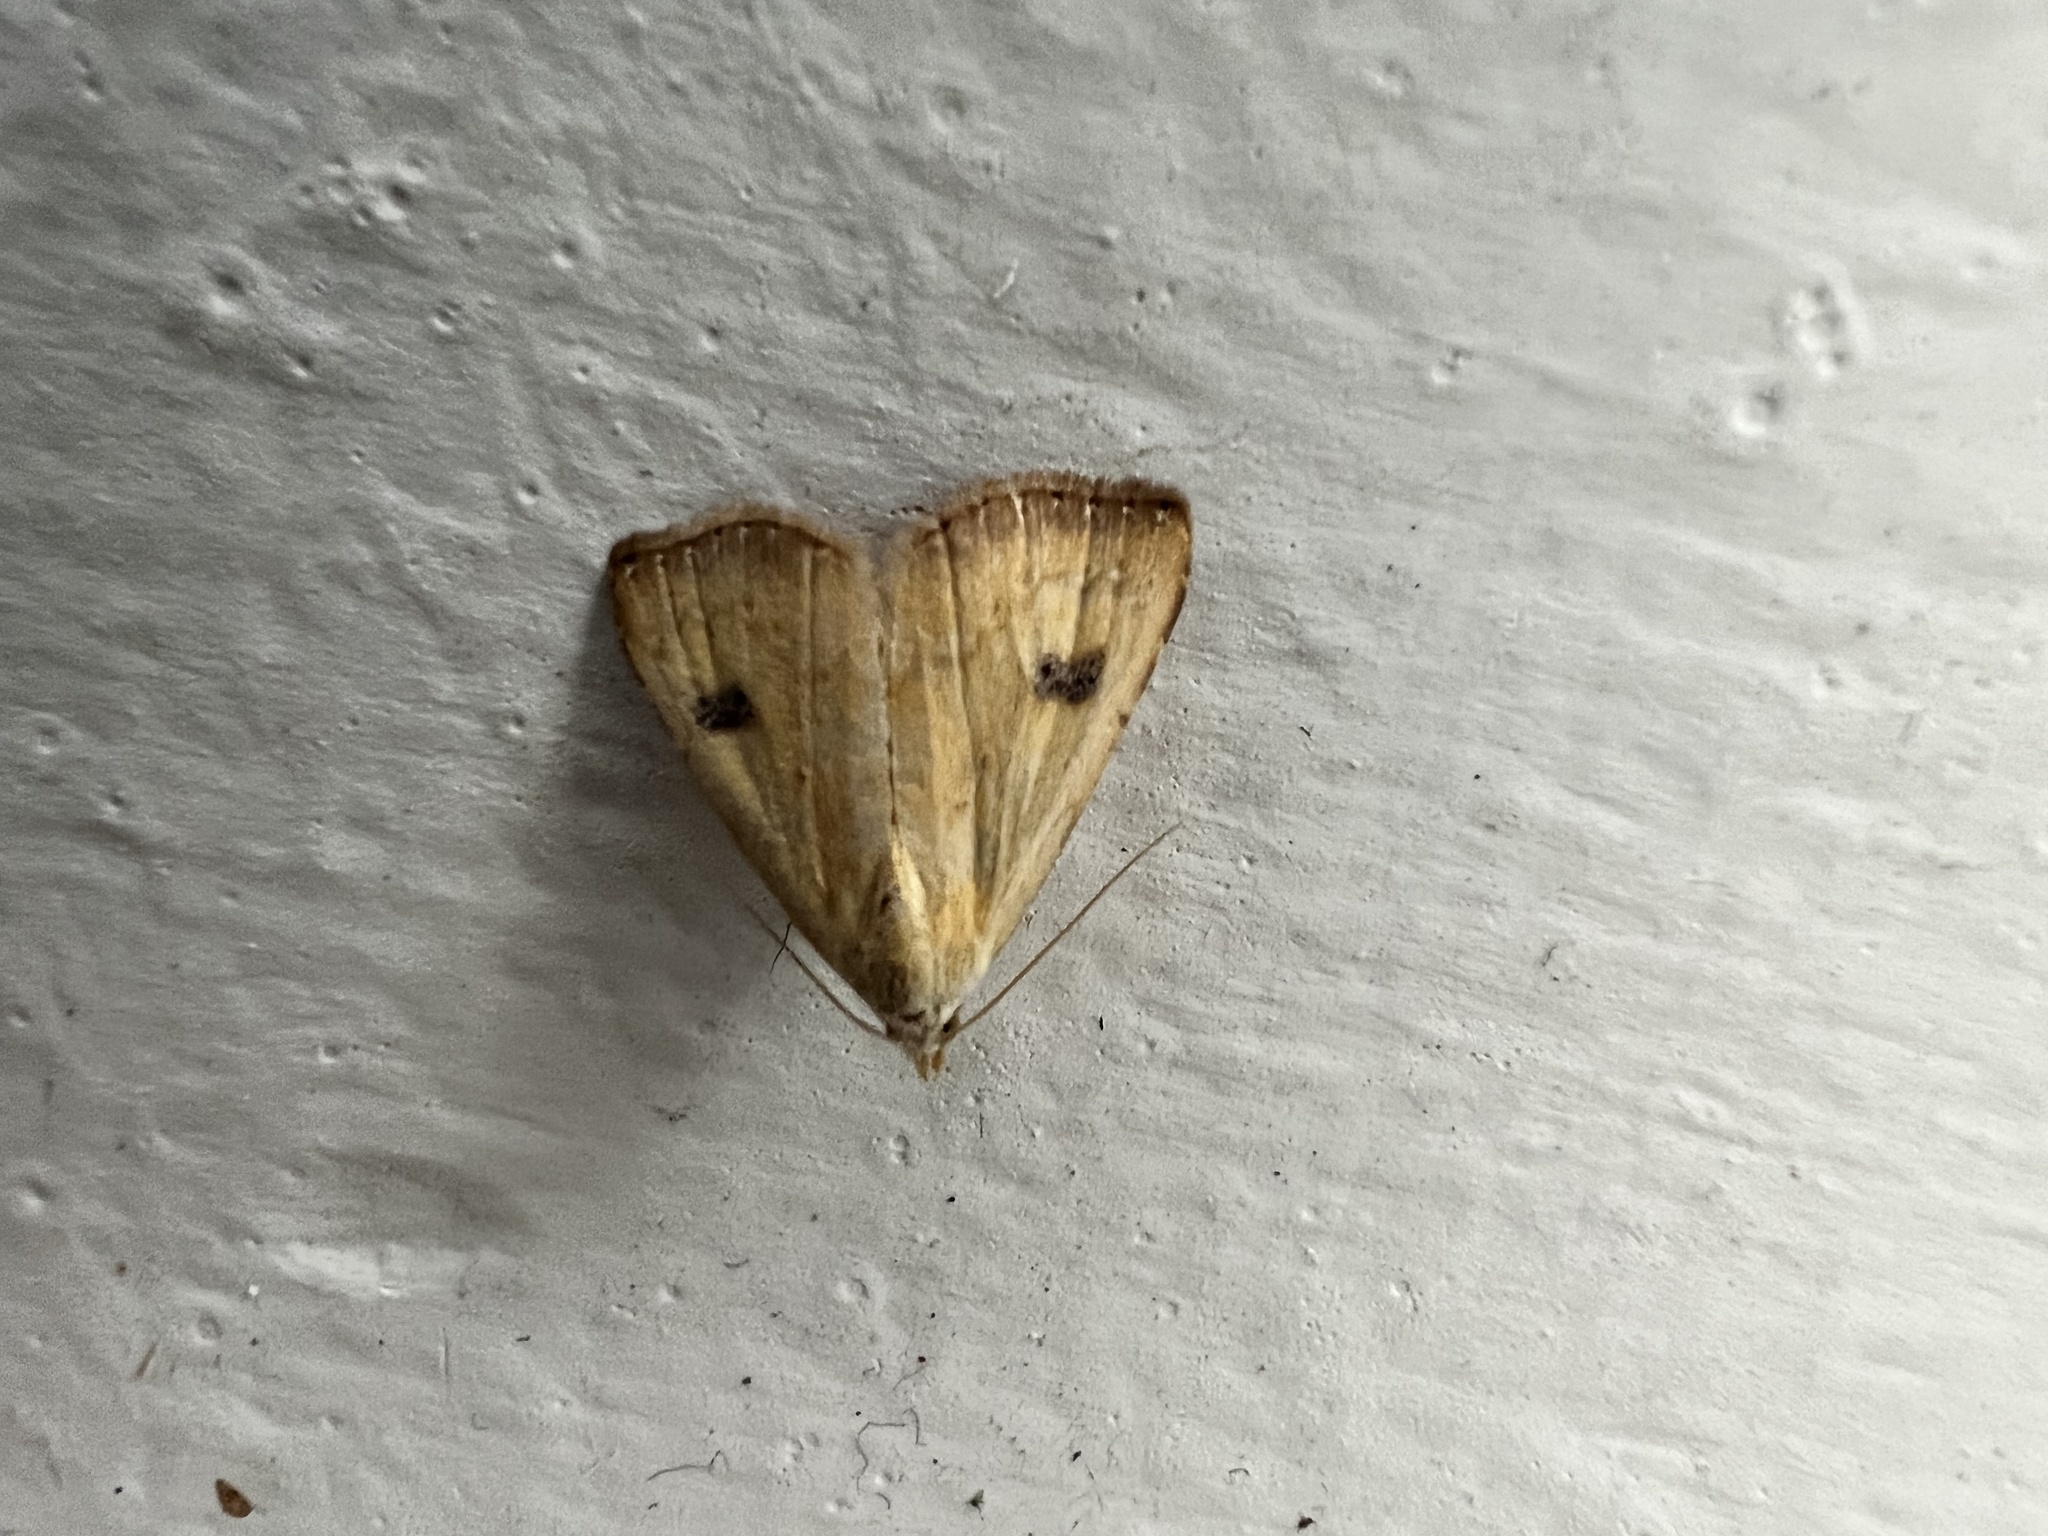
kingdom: Animalia
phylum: Arthropoda
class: Insecta
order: Lepidoptera
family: Erebidae
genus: Rivula
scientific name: Rivula sericealis
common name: Straw dot
